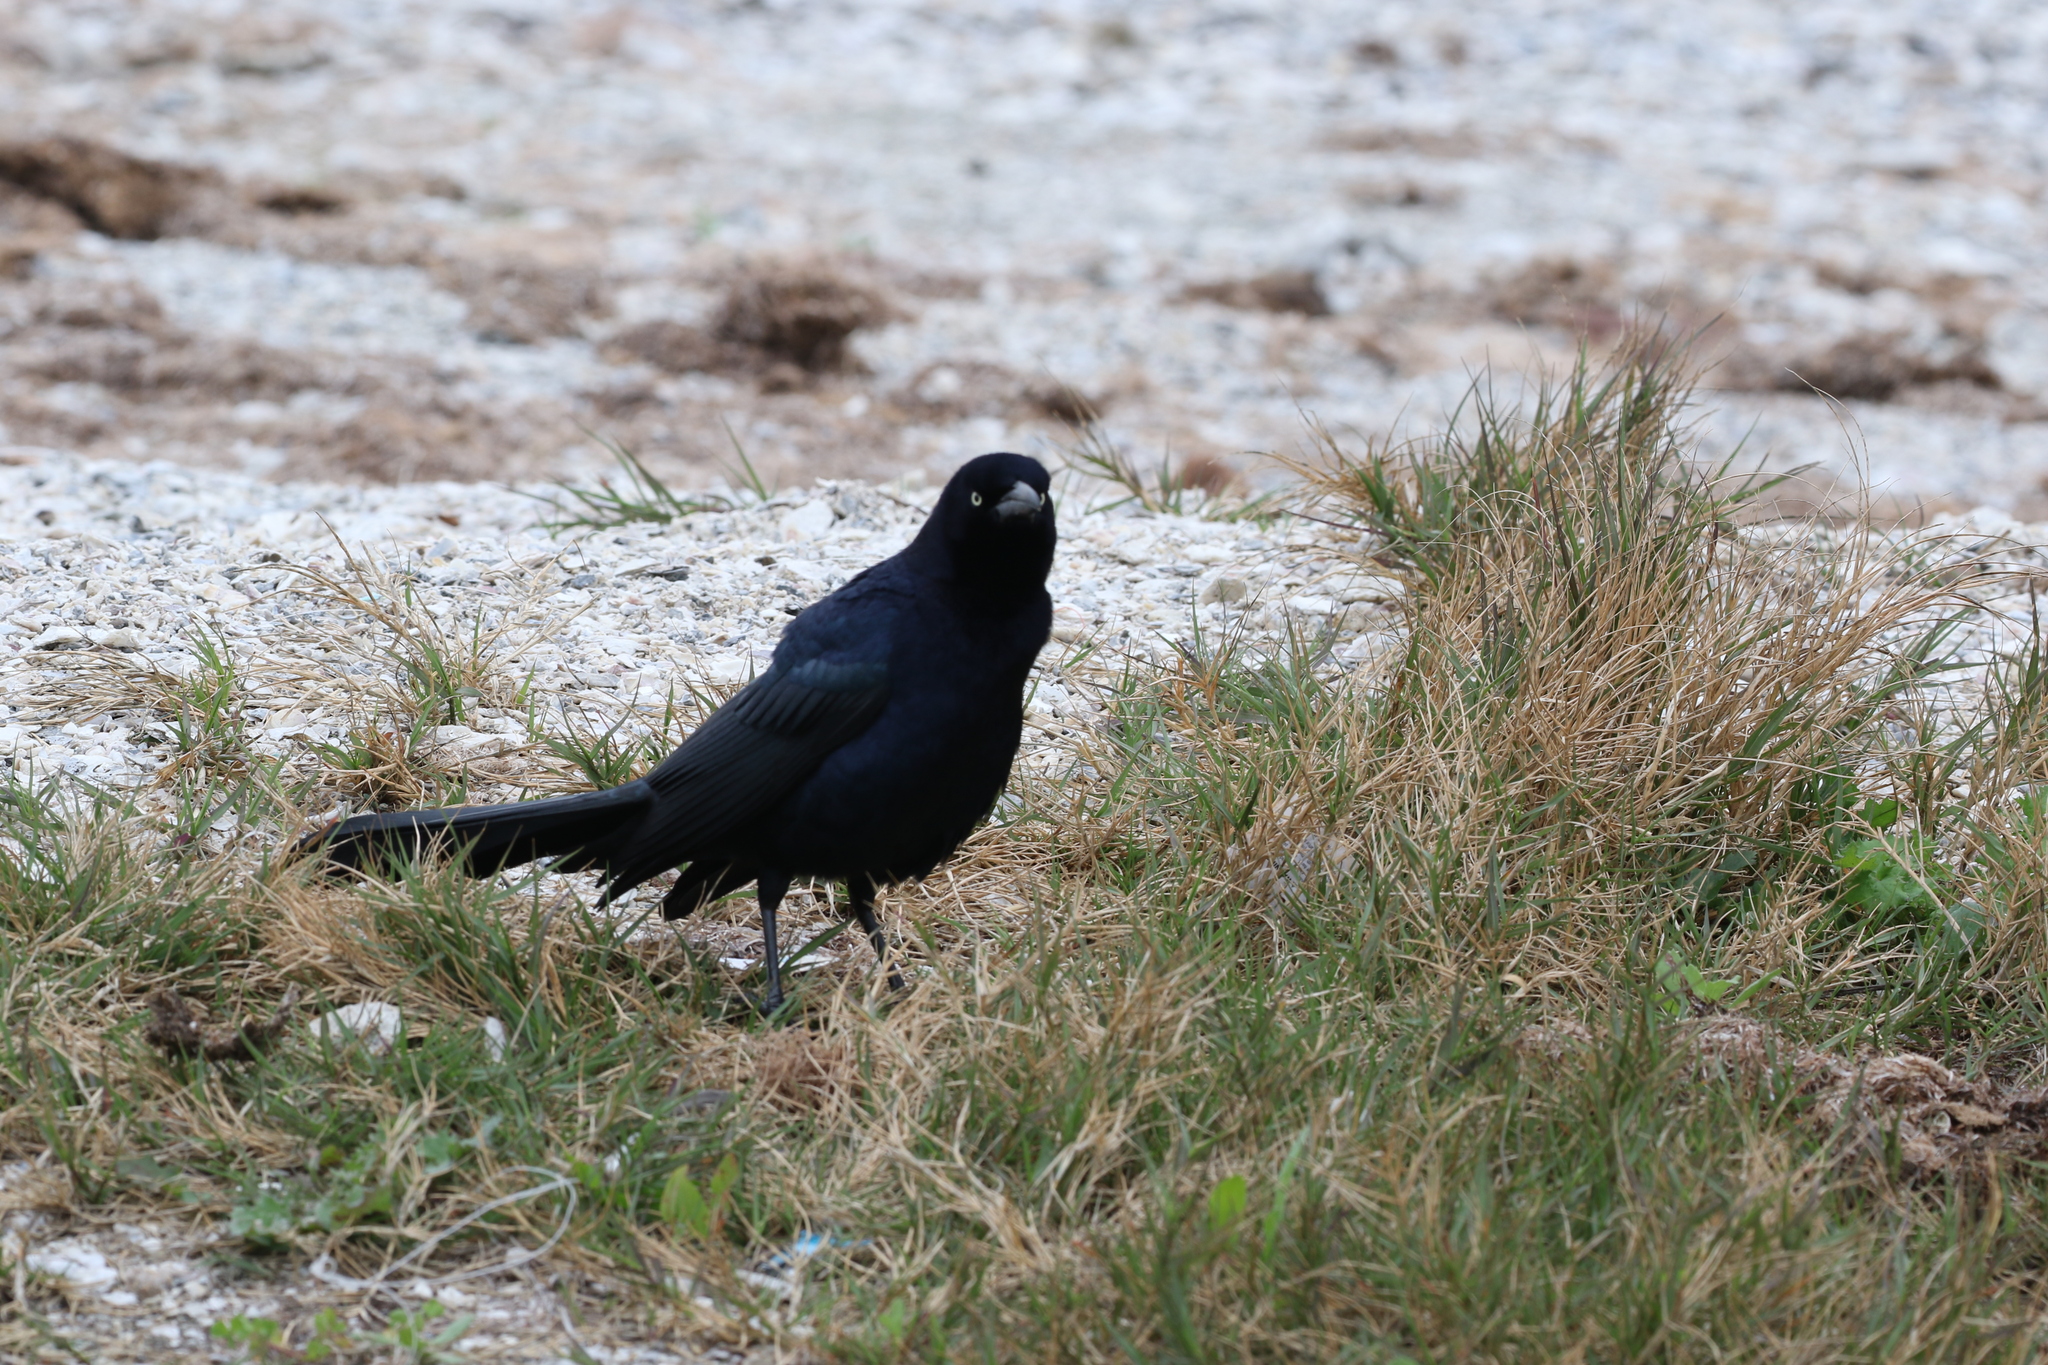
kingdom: Animalia
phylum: Chordata
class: Aves
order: Passeriformes
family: Icteridae
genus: Quiscalus
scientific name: Quiscalus mexicanus
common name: Great-tailed grackle
